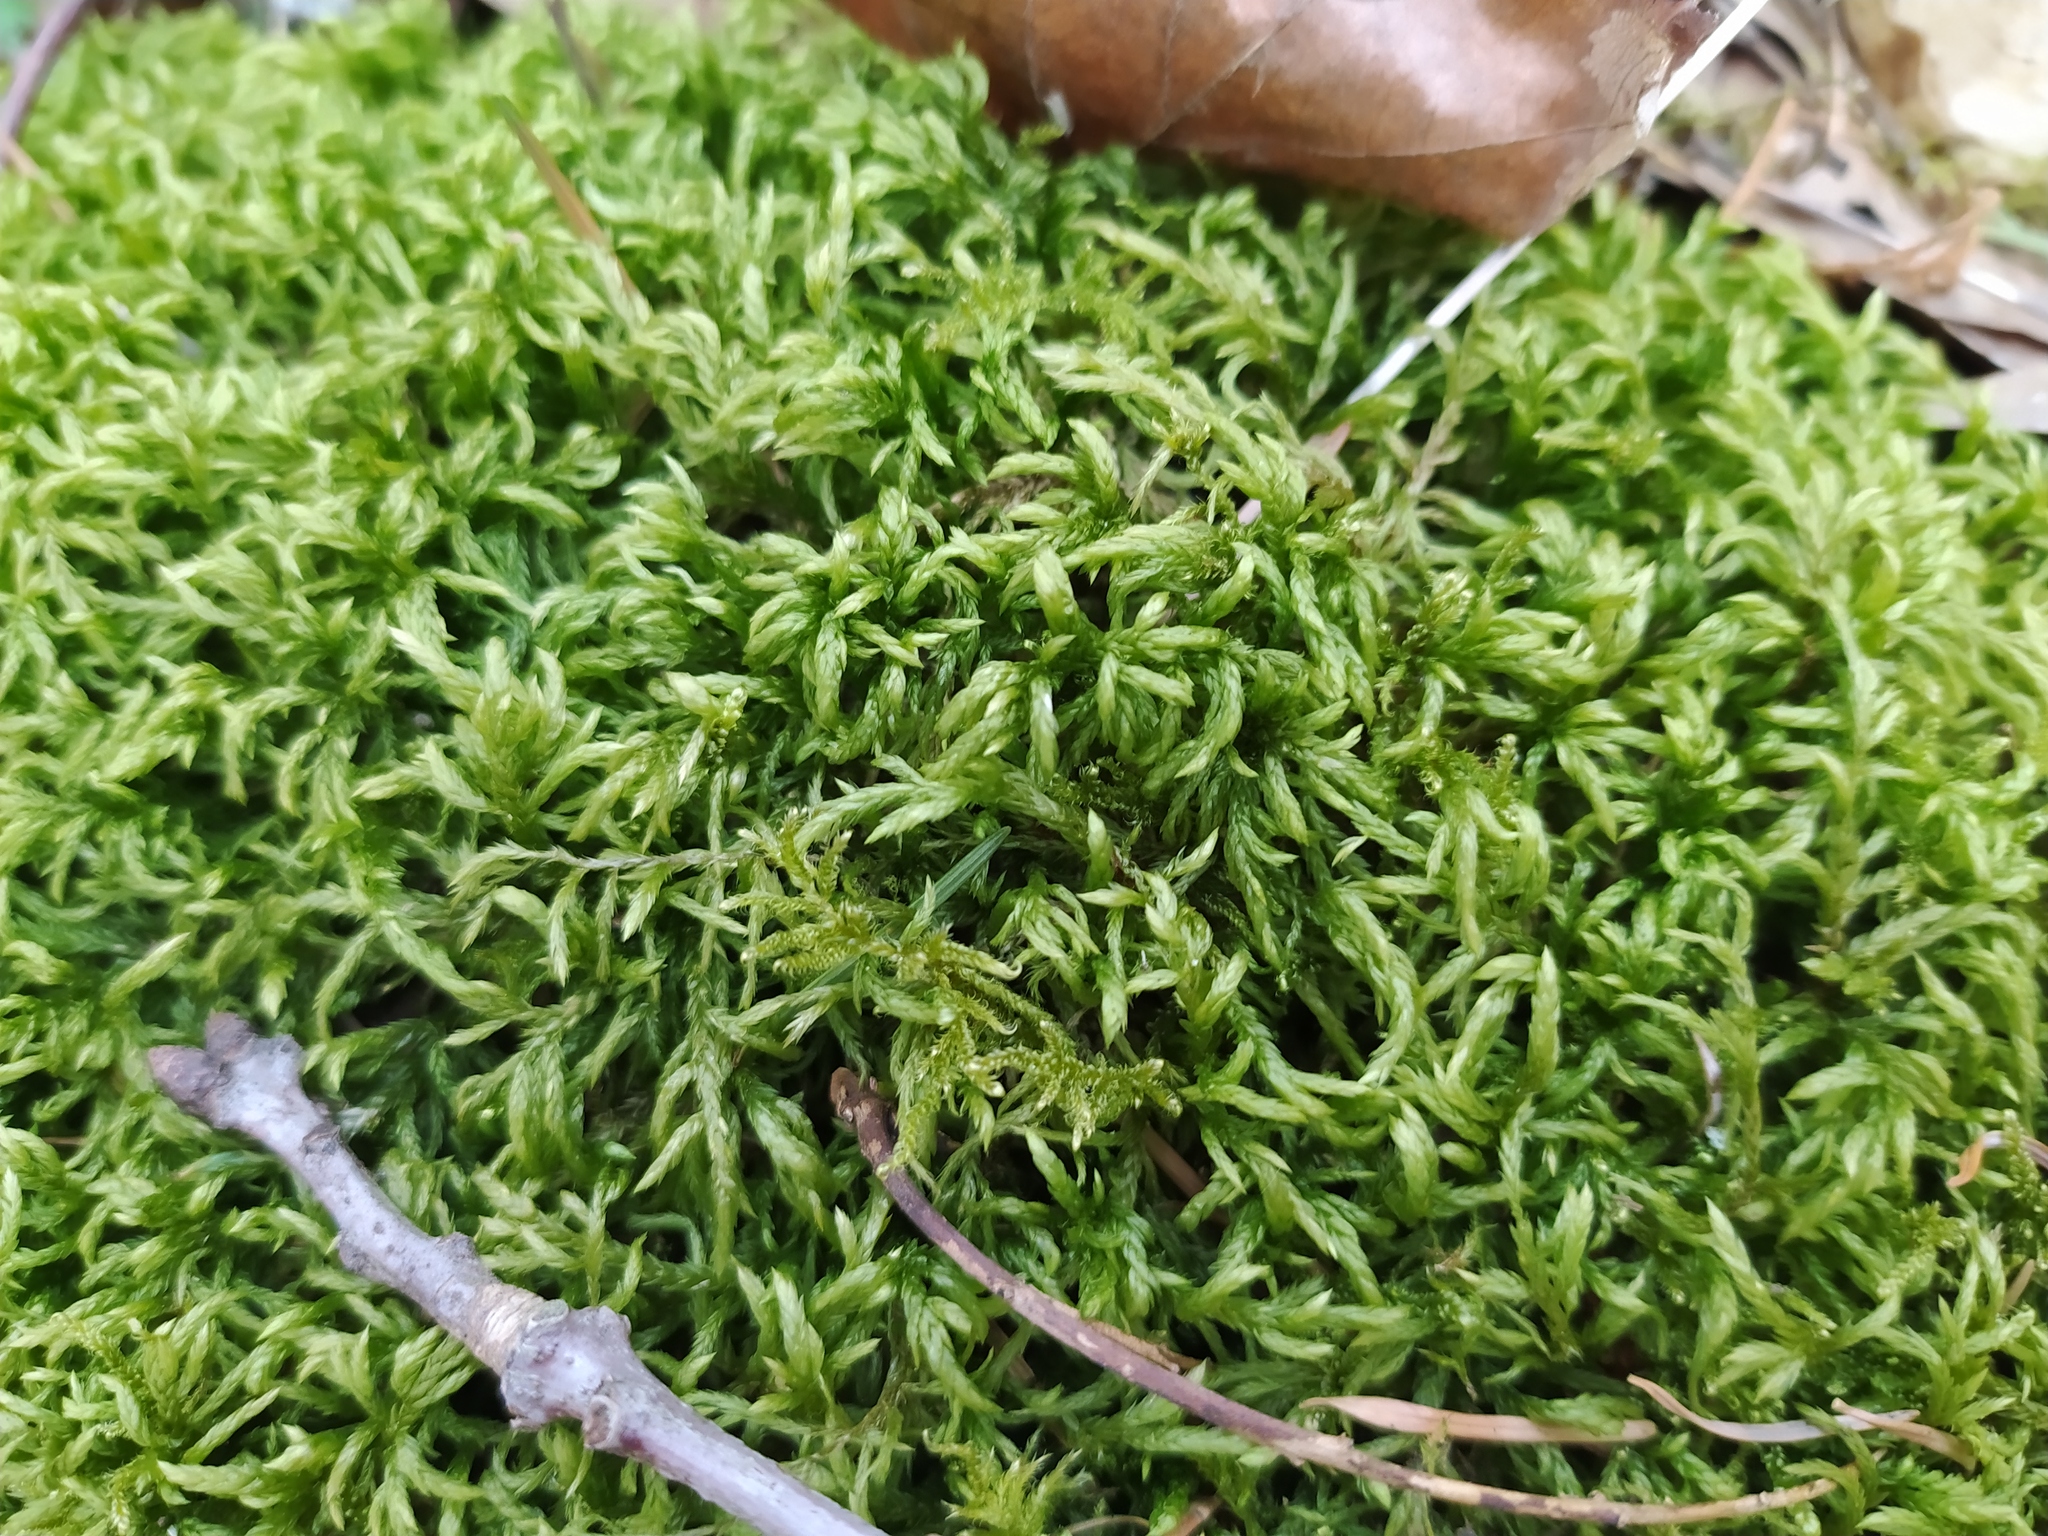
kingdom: Plantae
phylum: Bryophyta
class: Bryopsida
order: Hypnales
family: Lembophyllaceae
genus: Isothecium
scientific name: Isothecium alopecuroides
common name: Larger mouse-tail moss
